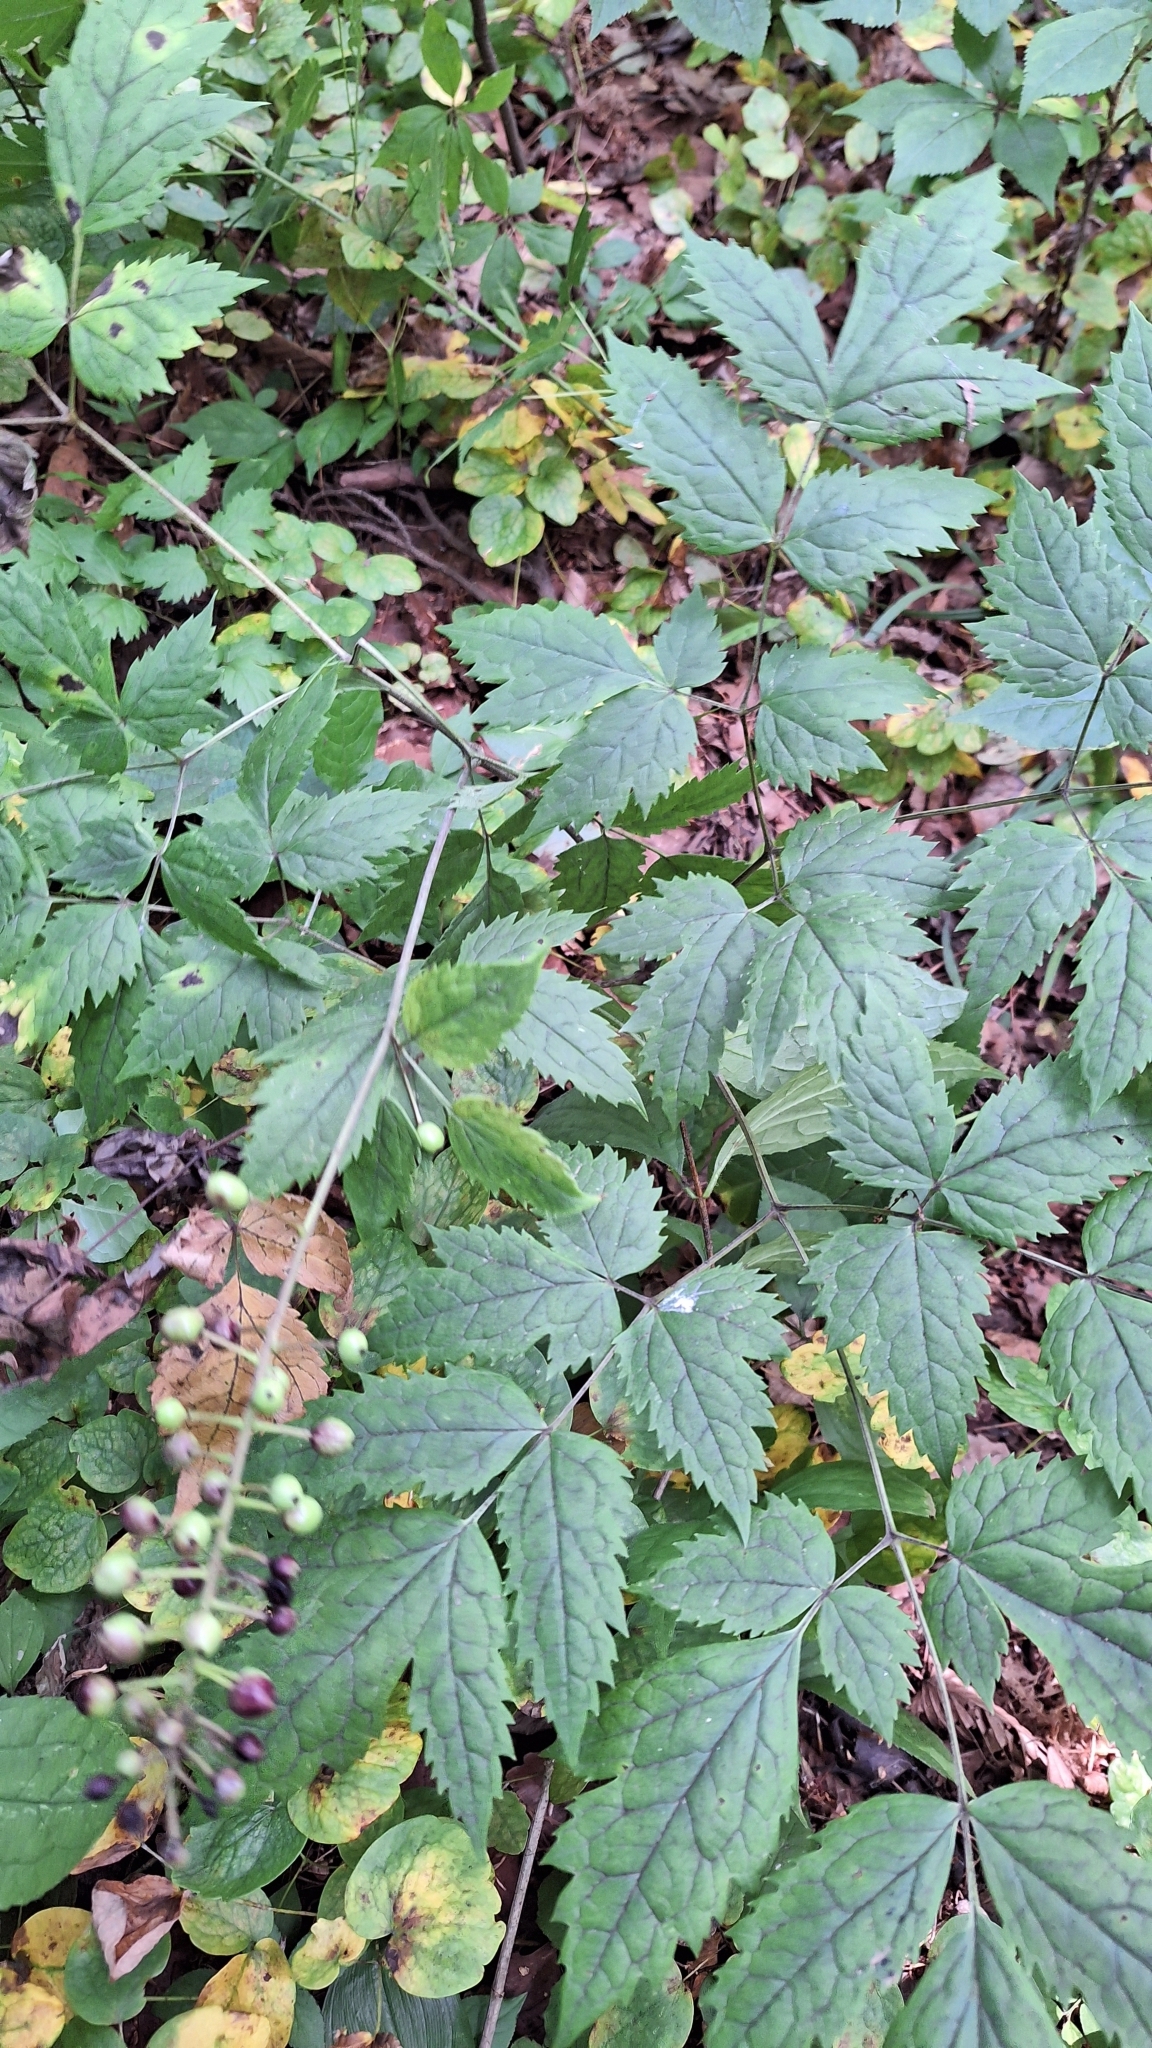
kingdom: Plantae
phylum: Tracheophyta
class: Magnoliopsida
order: Ranunculales
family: Ranunculaceae
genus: Actaea
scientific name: Actaea asiatica
